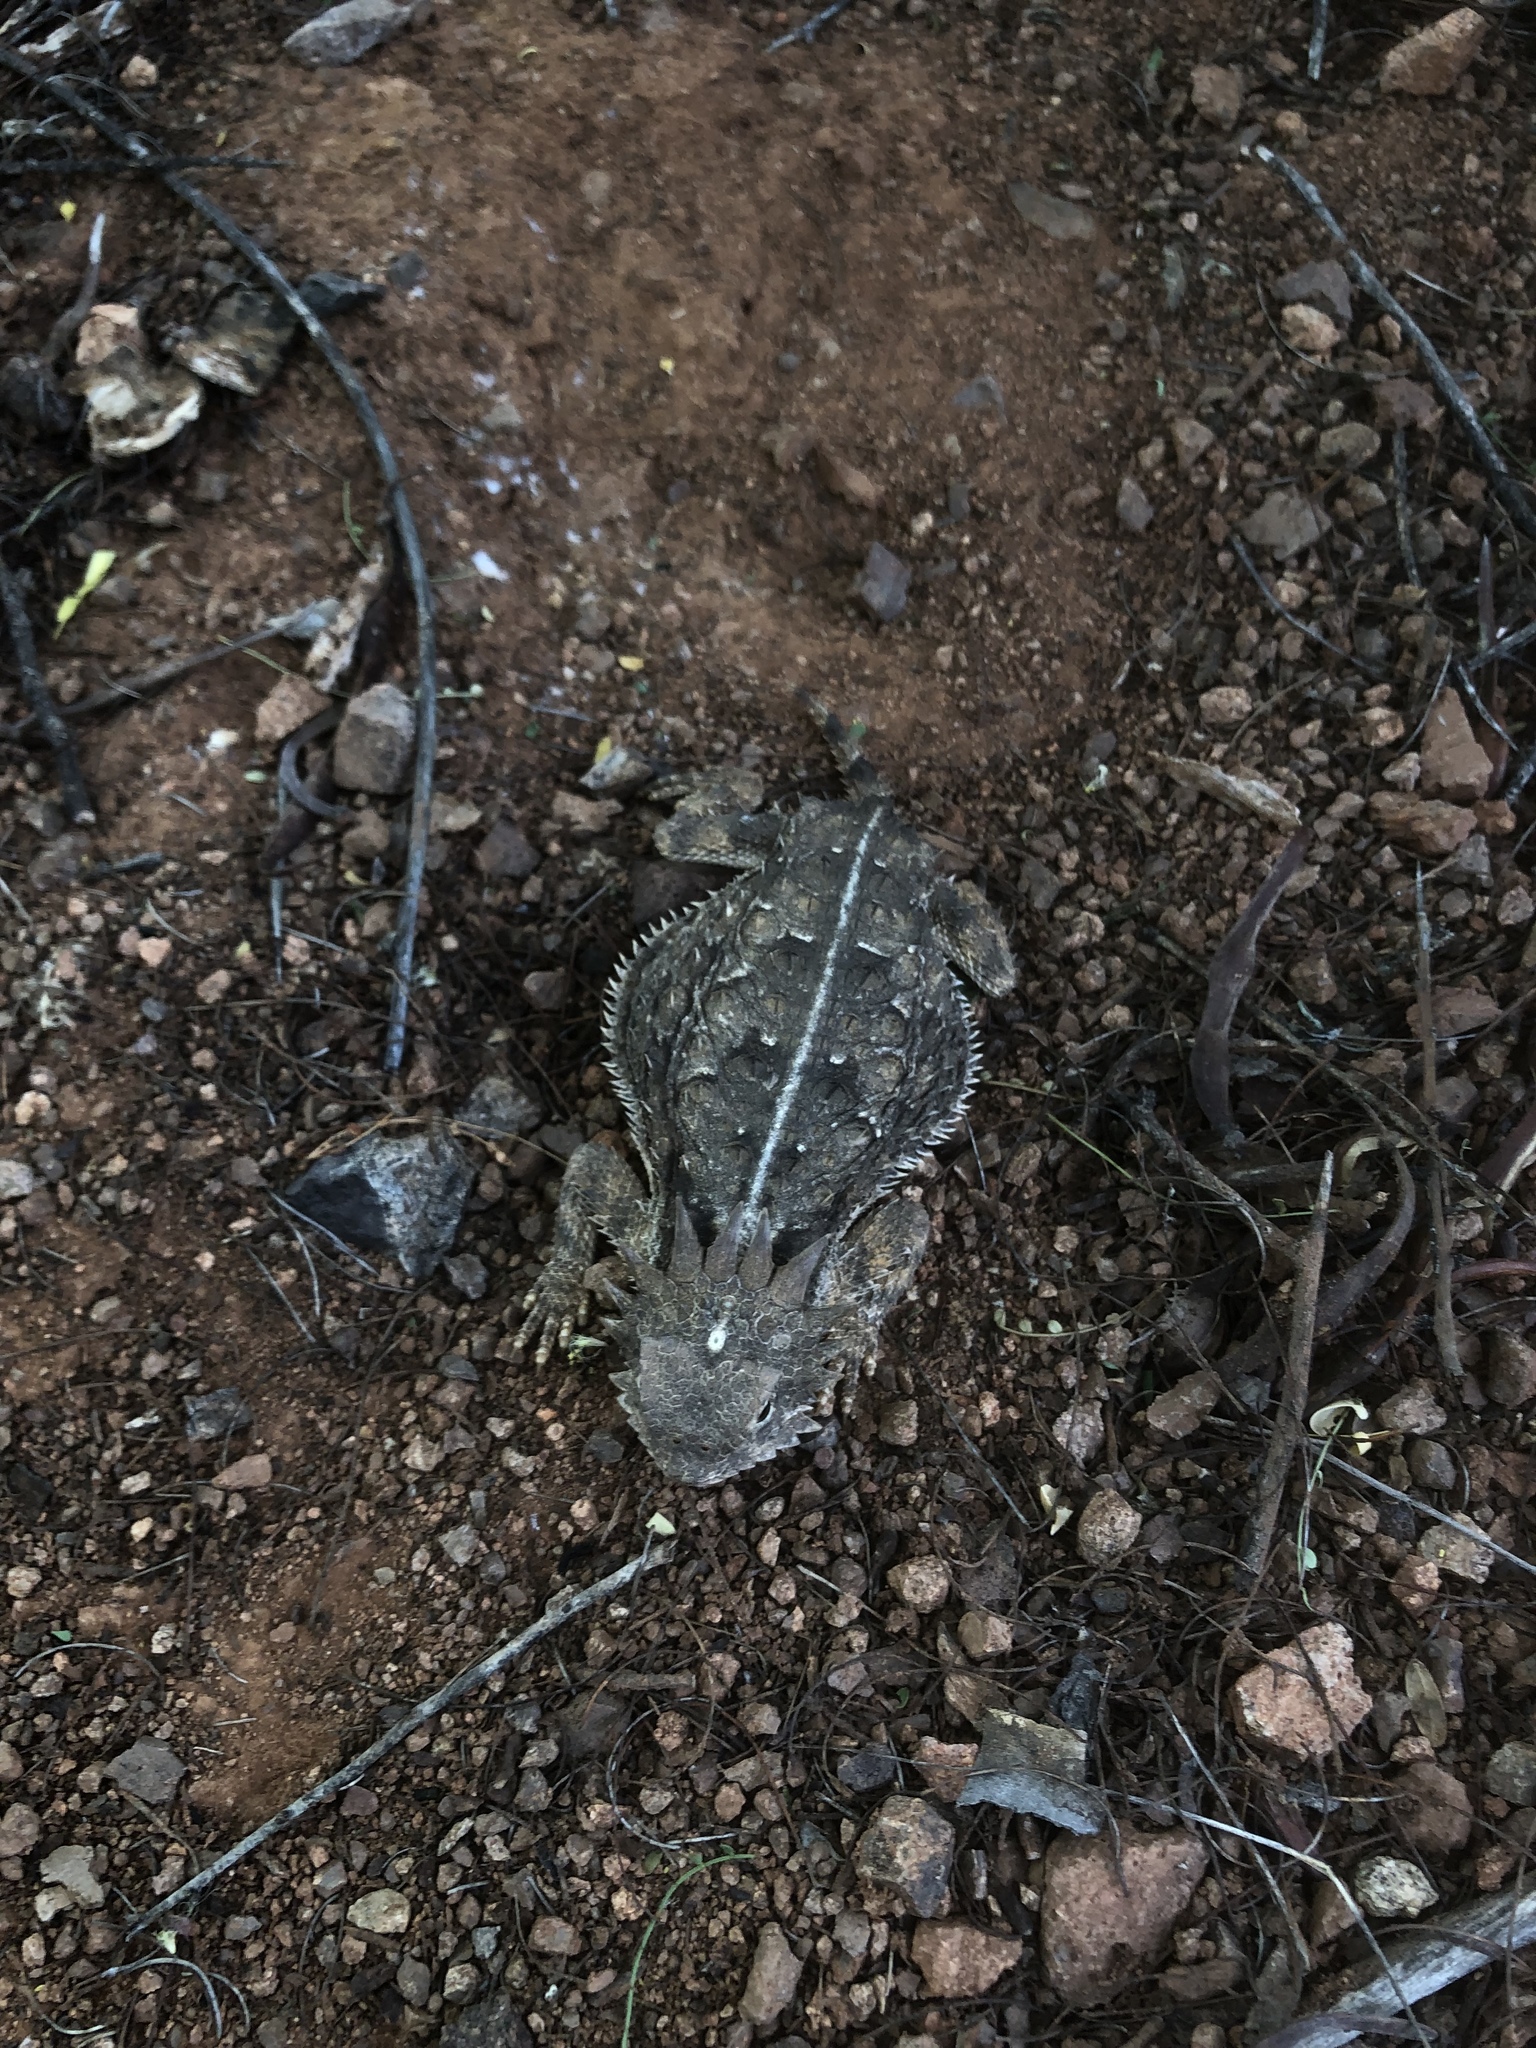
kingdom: Animalia
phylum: Chordata
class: Squamata
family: Phrynosomatidae
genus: Phrynosoma
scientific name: Phrynosoma solare
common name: Regal horned lizard
